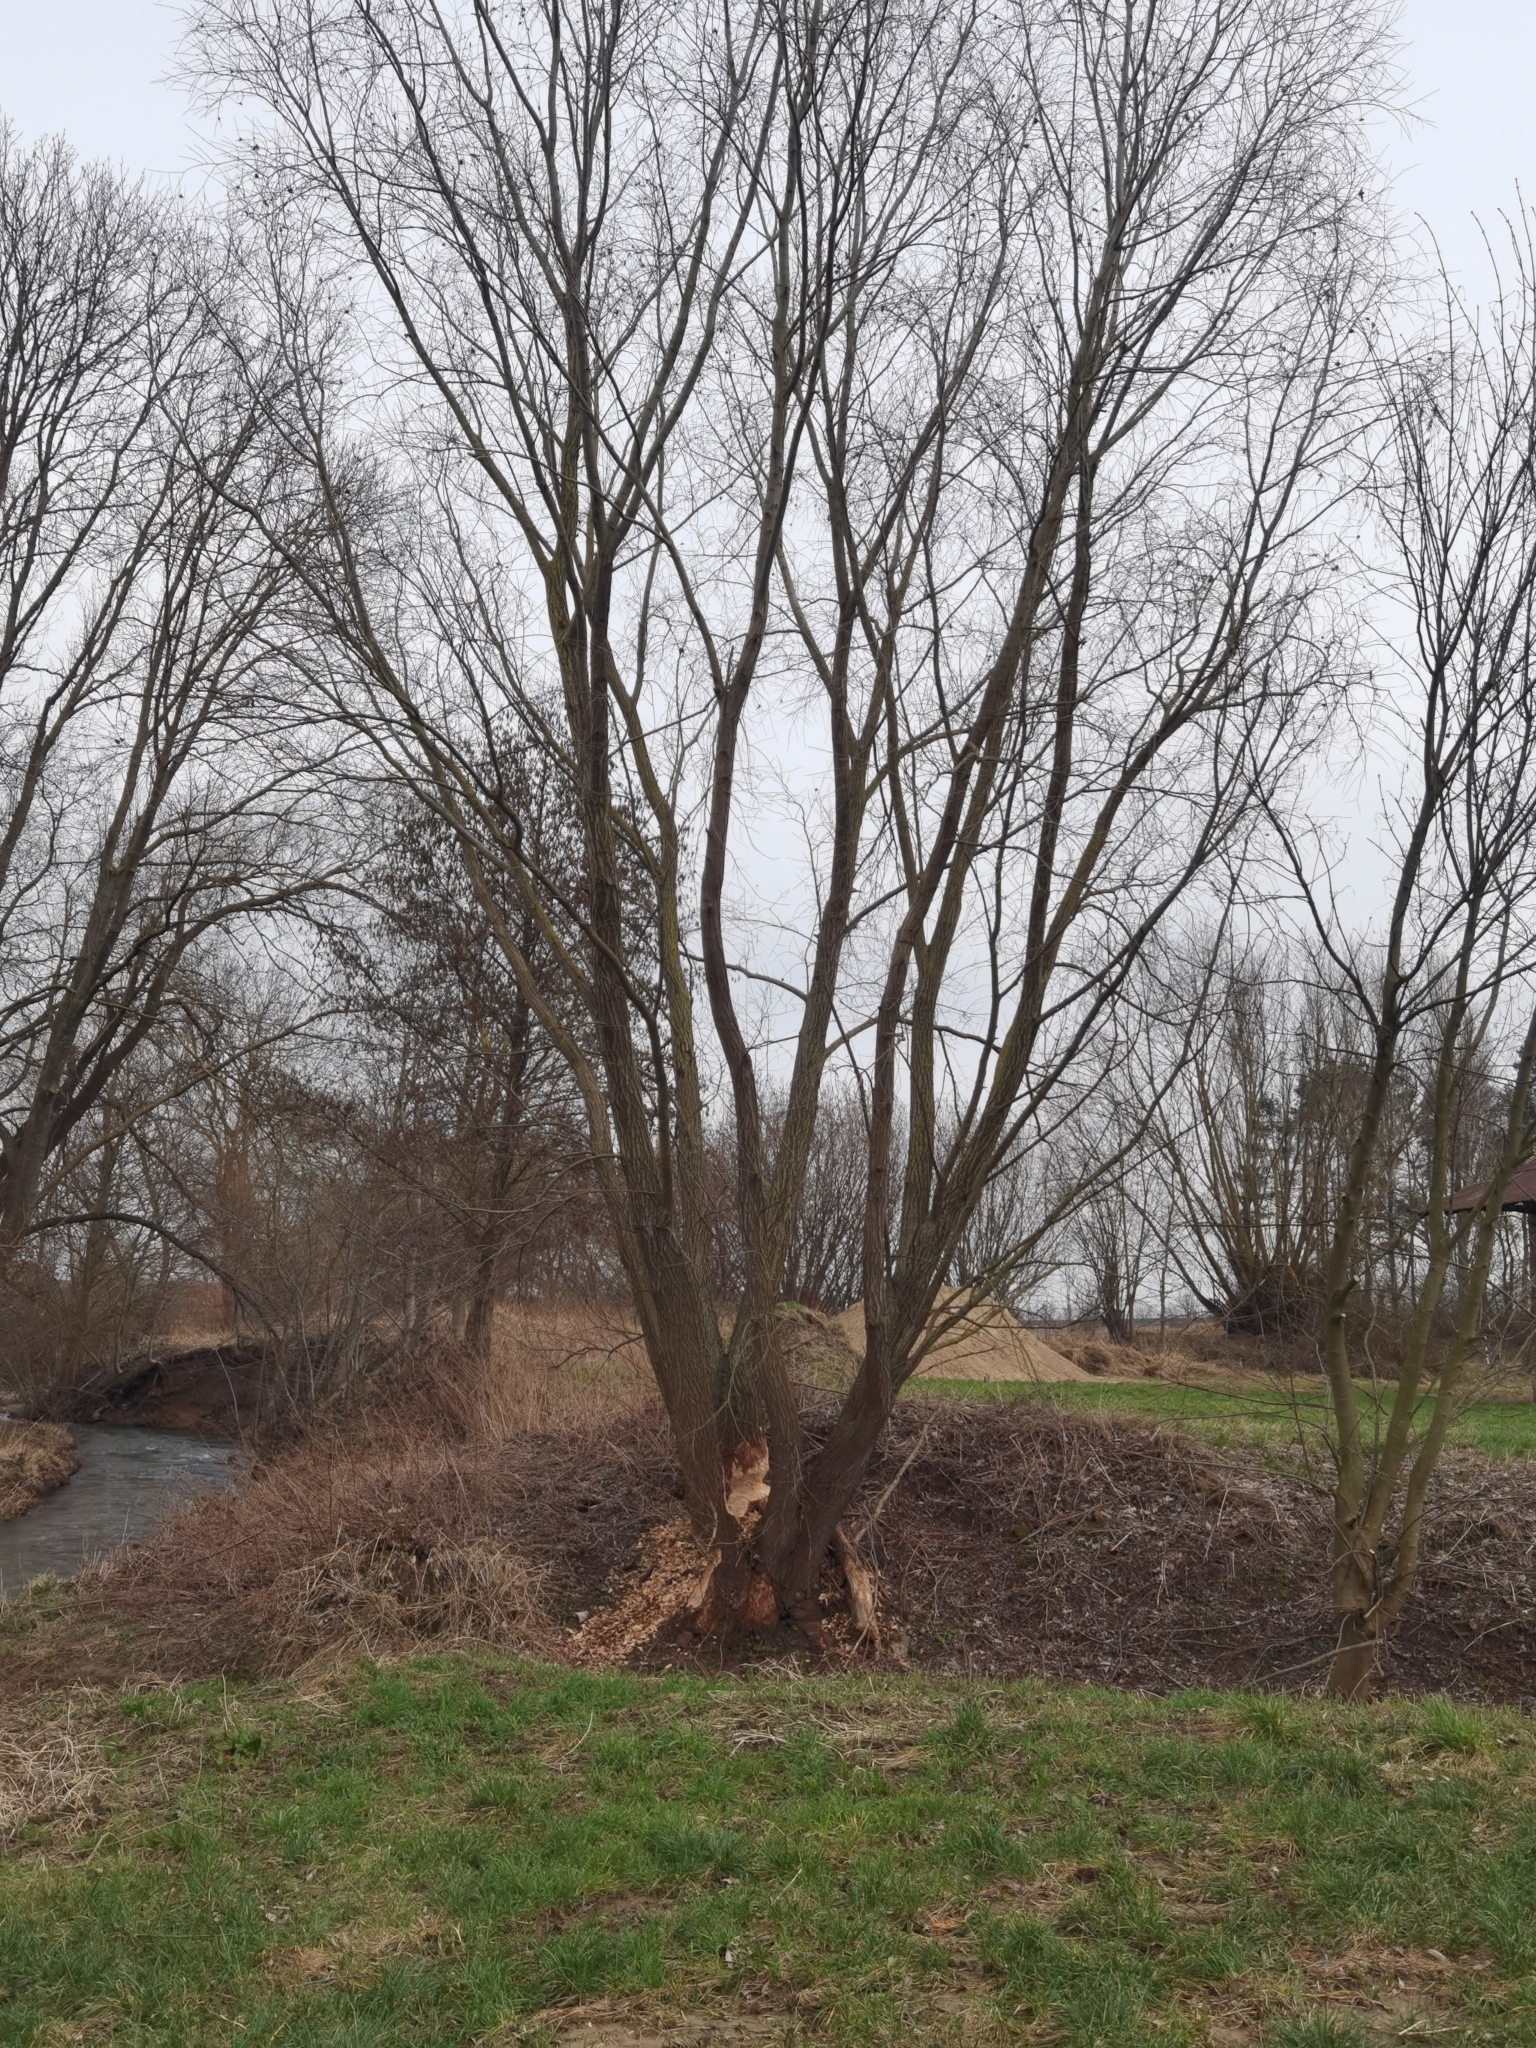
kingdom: Animalia
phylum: Chordata
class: Mammalia
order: Rodentia
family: Castoridae
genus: Castor
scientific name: Castor fiber
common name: Eurasian beaver
